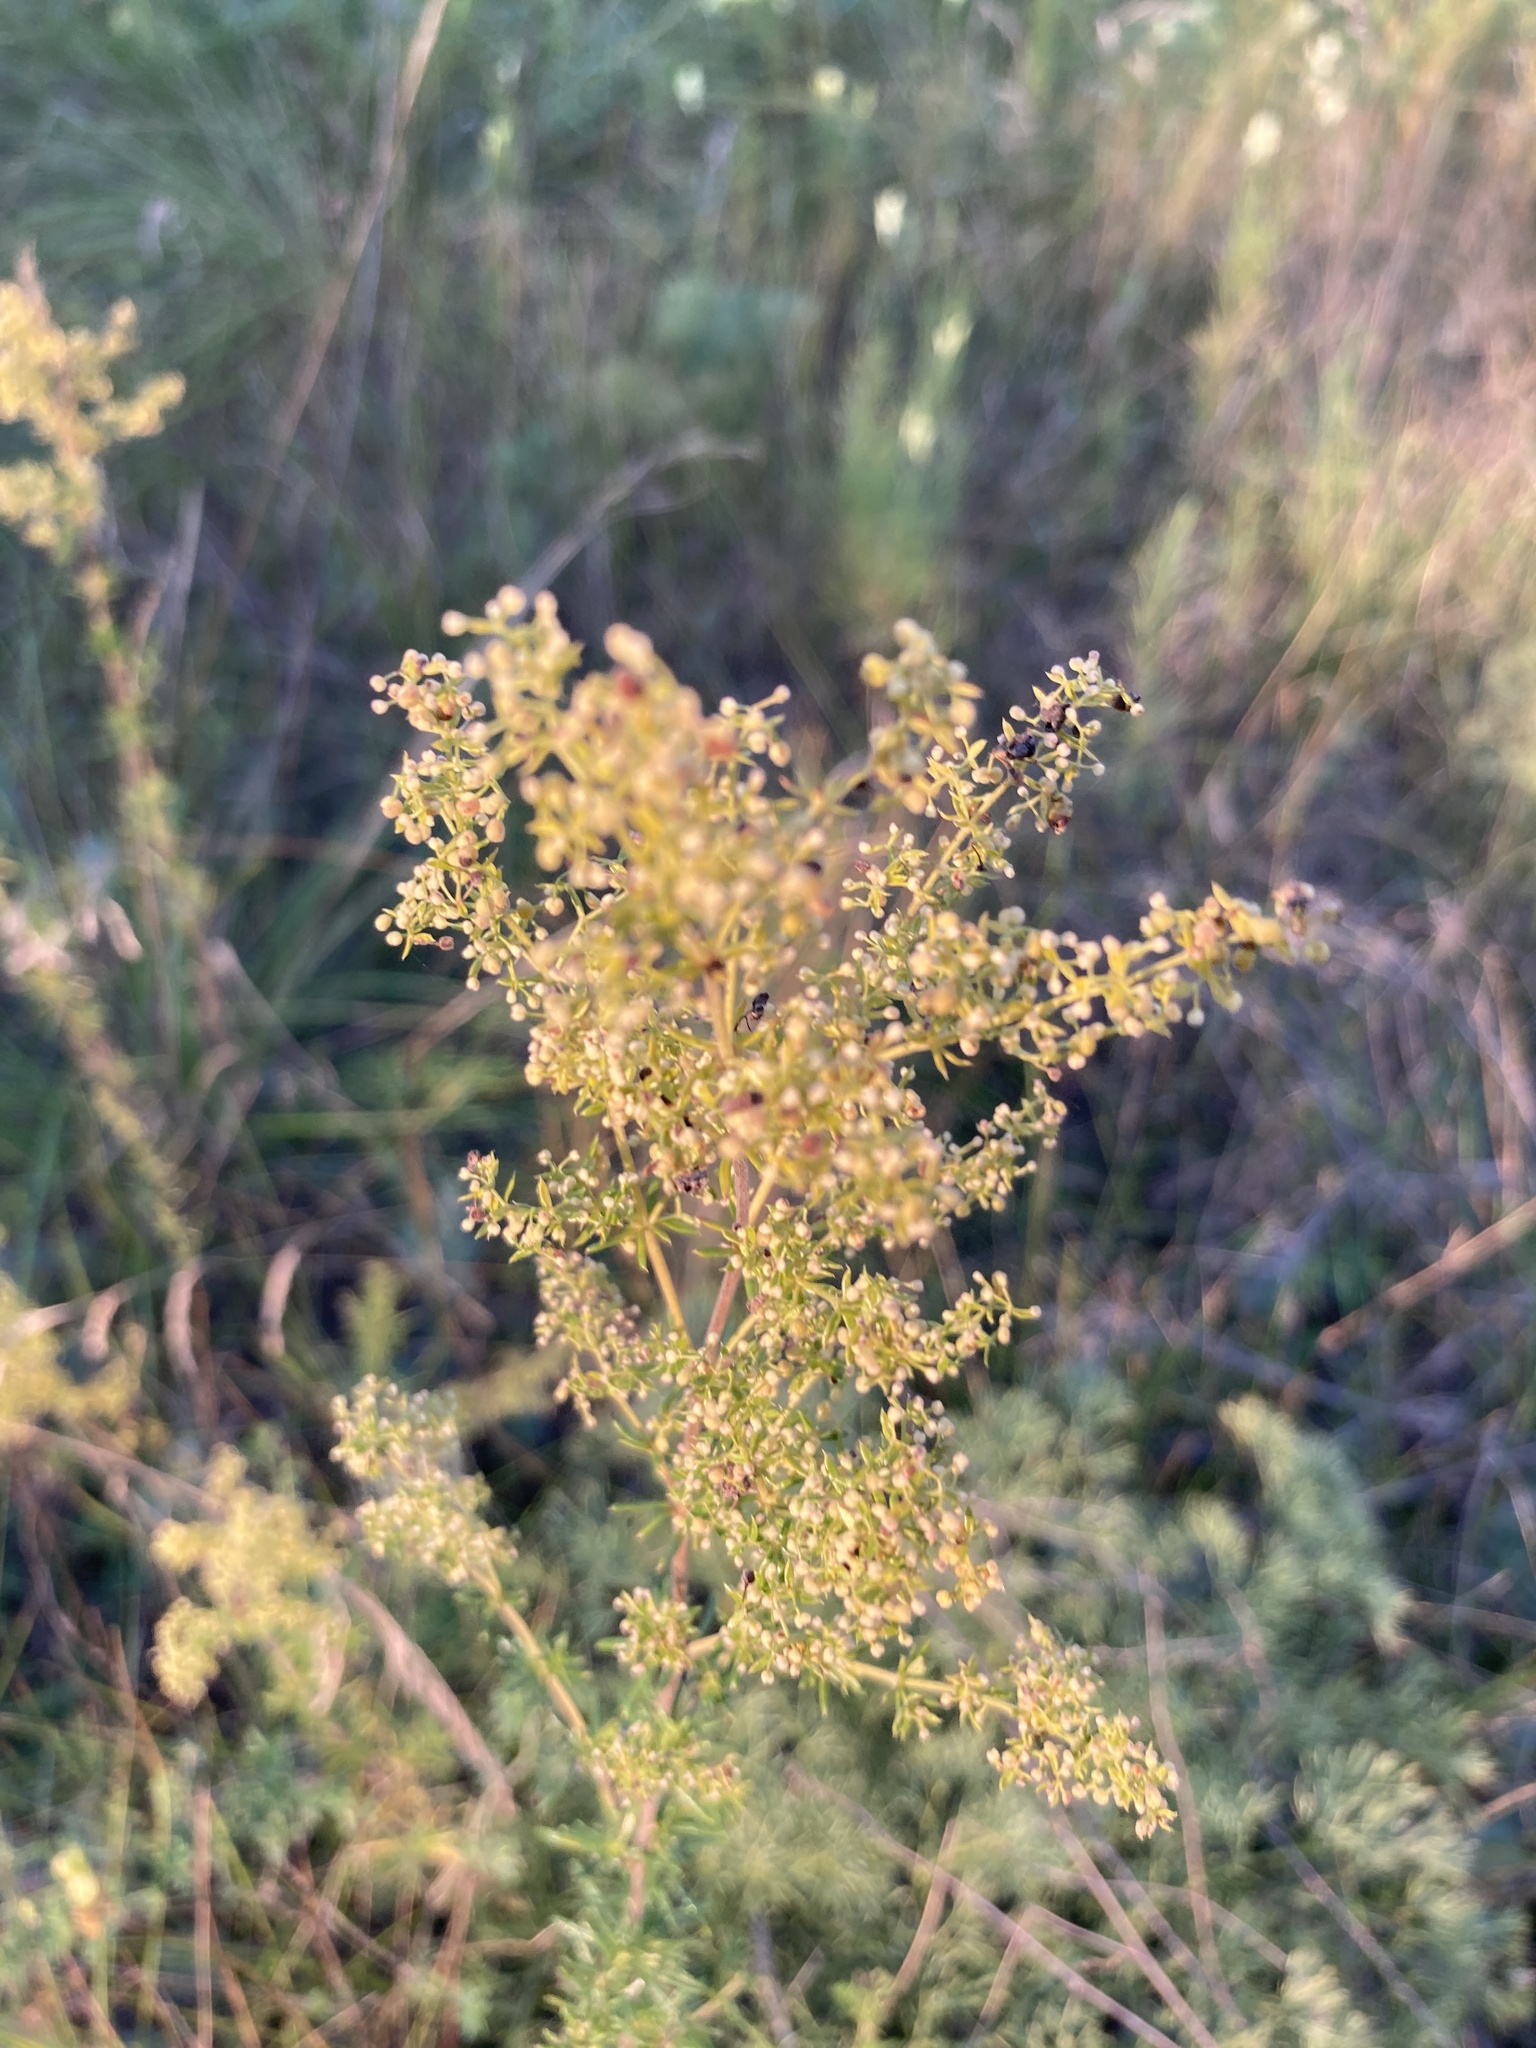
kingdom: Plantae
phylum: Tracheophyta
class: Magnoliopsida
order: Gentianales
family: Rubiaceae
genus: Galium
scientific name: Galium verum
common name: Lady's bedstraw
